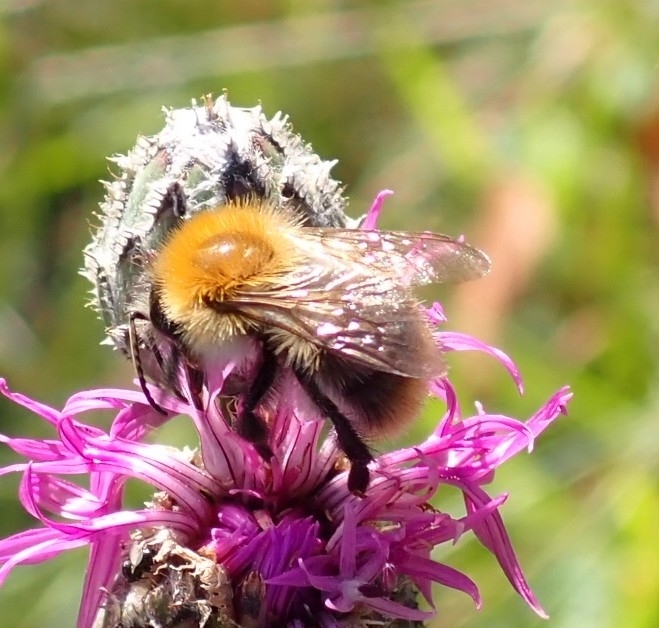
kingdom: Animalia
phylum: Arthropoda
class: Insecta
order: Hymenoptera
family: Apidae
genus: Bombus
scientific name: Bombus pascuorum
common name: Common carder bee
